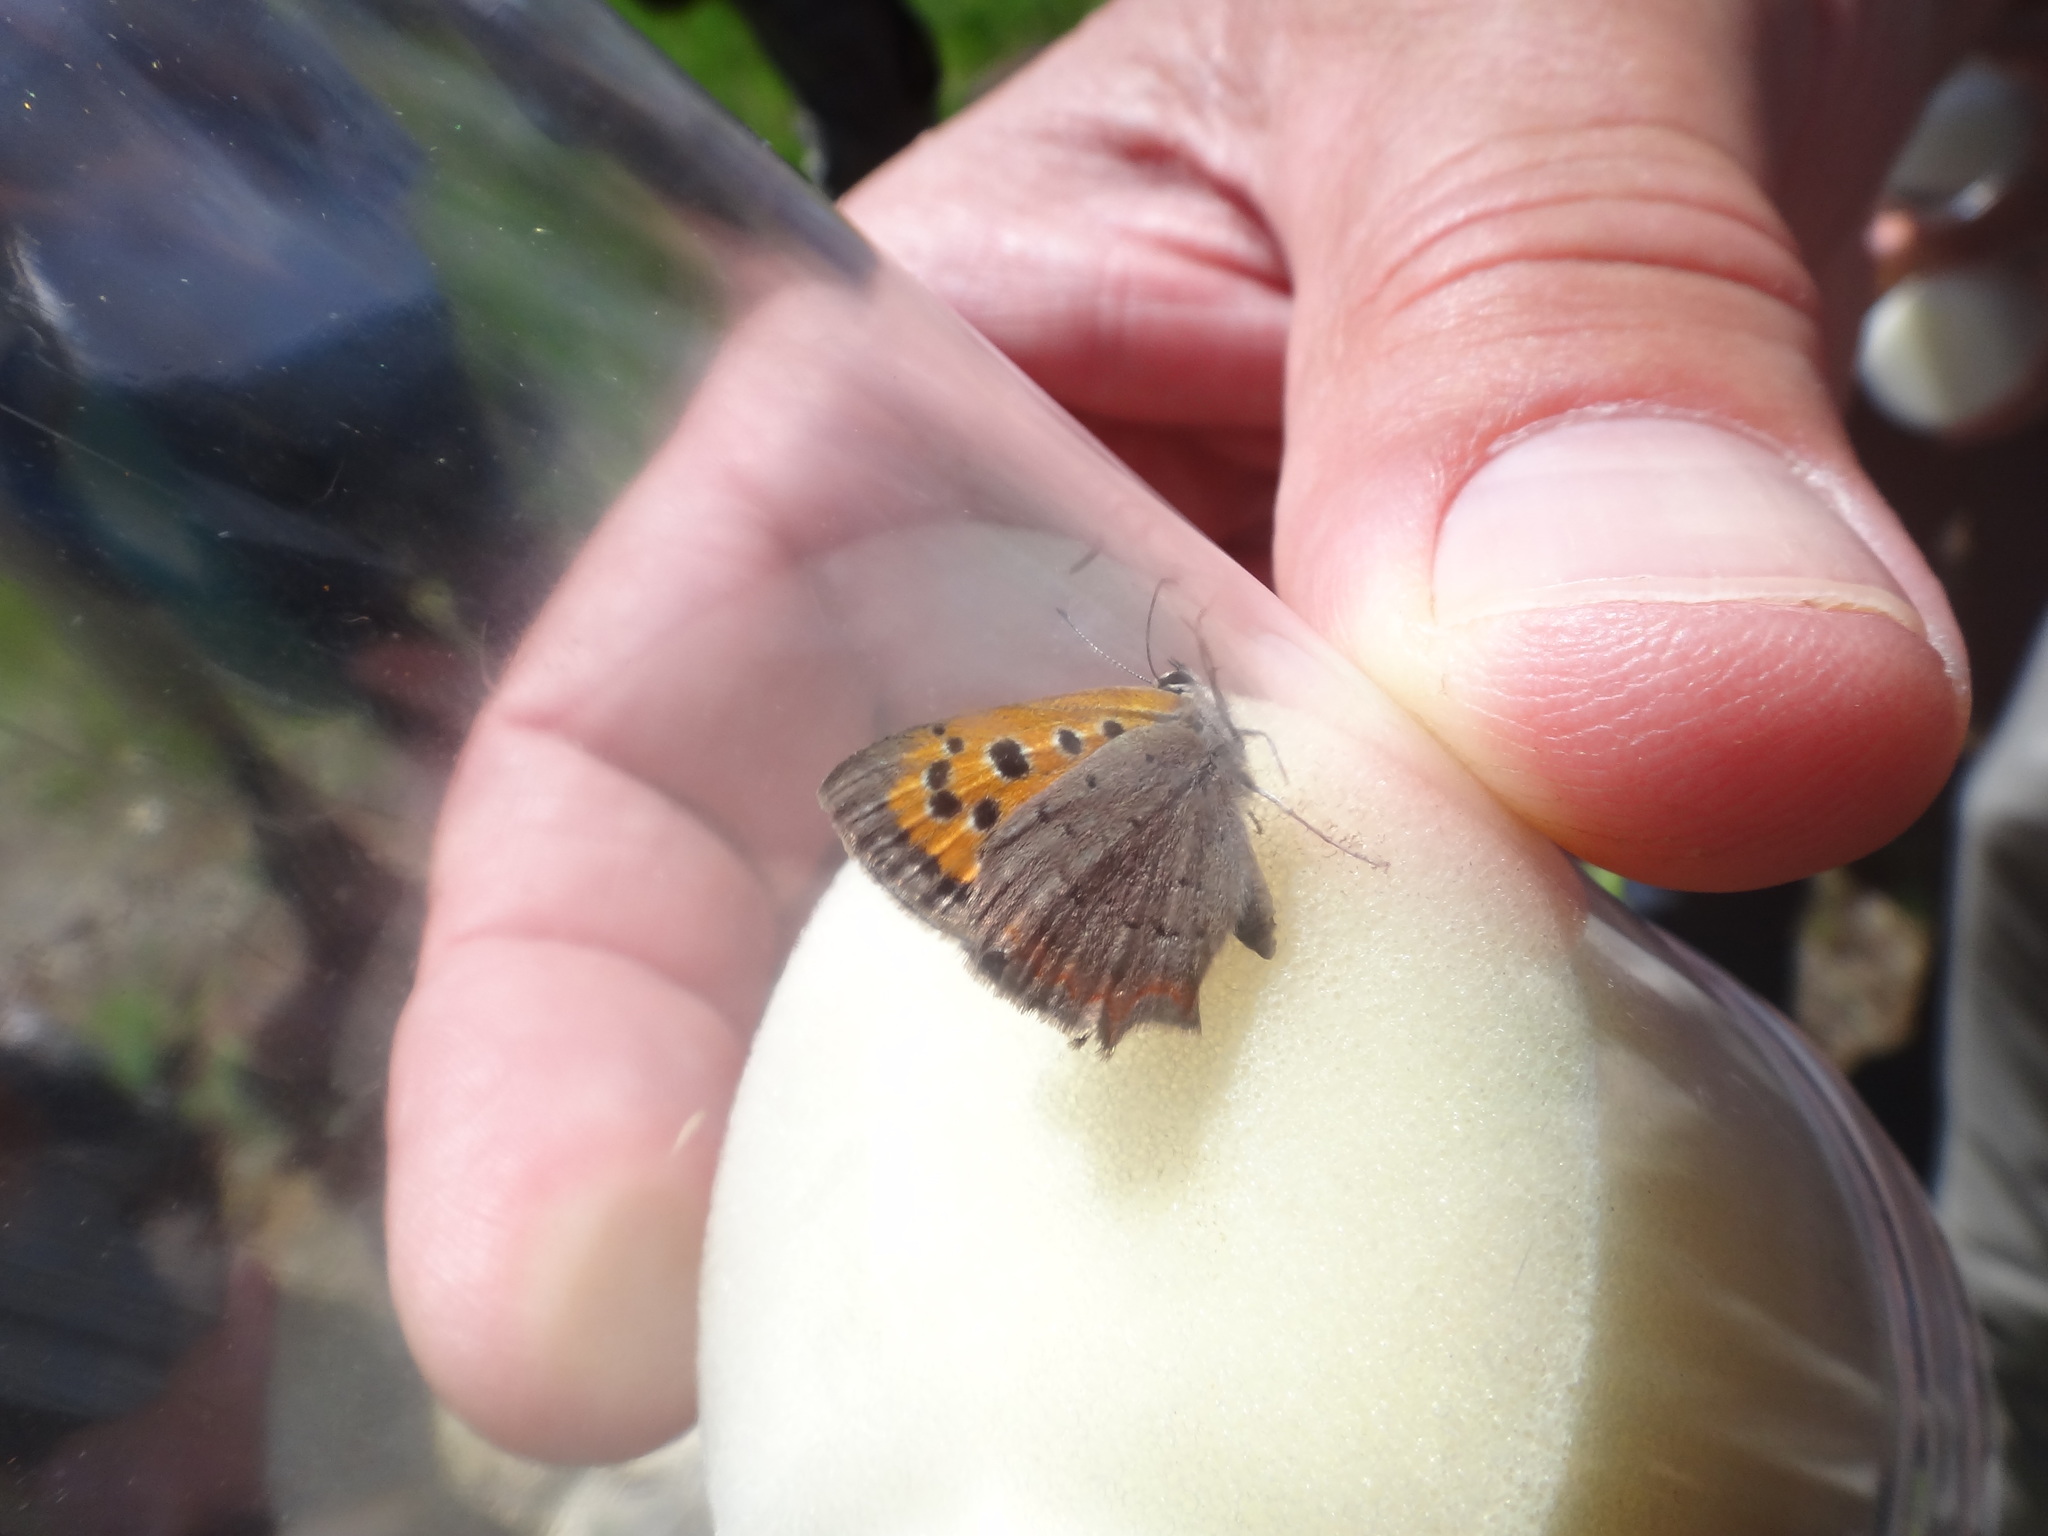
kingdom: Animalia
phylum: Arthropoda
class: Insecta
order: Lepidoptera
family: Lycaenidae
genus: Lycaena
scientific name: Lycaena phlaeas
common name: Small copper
